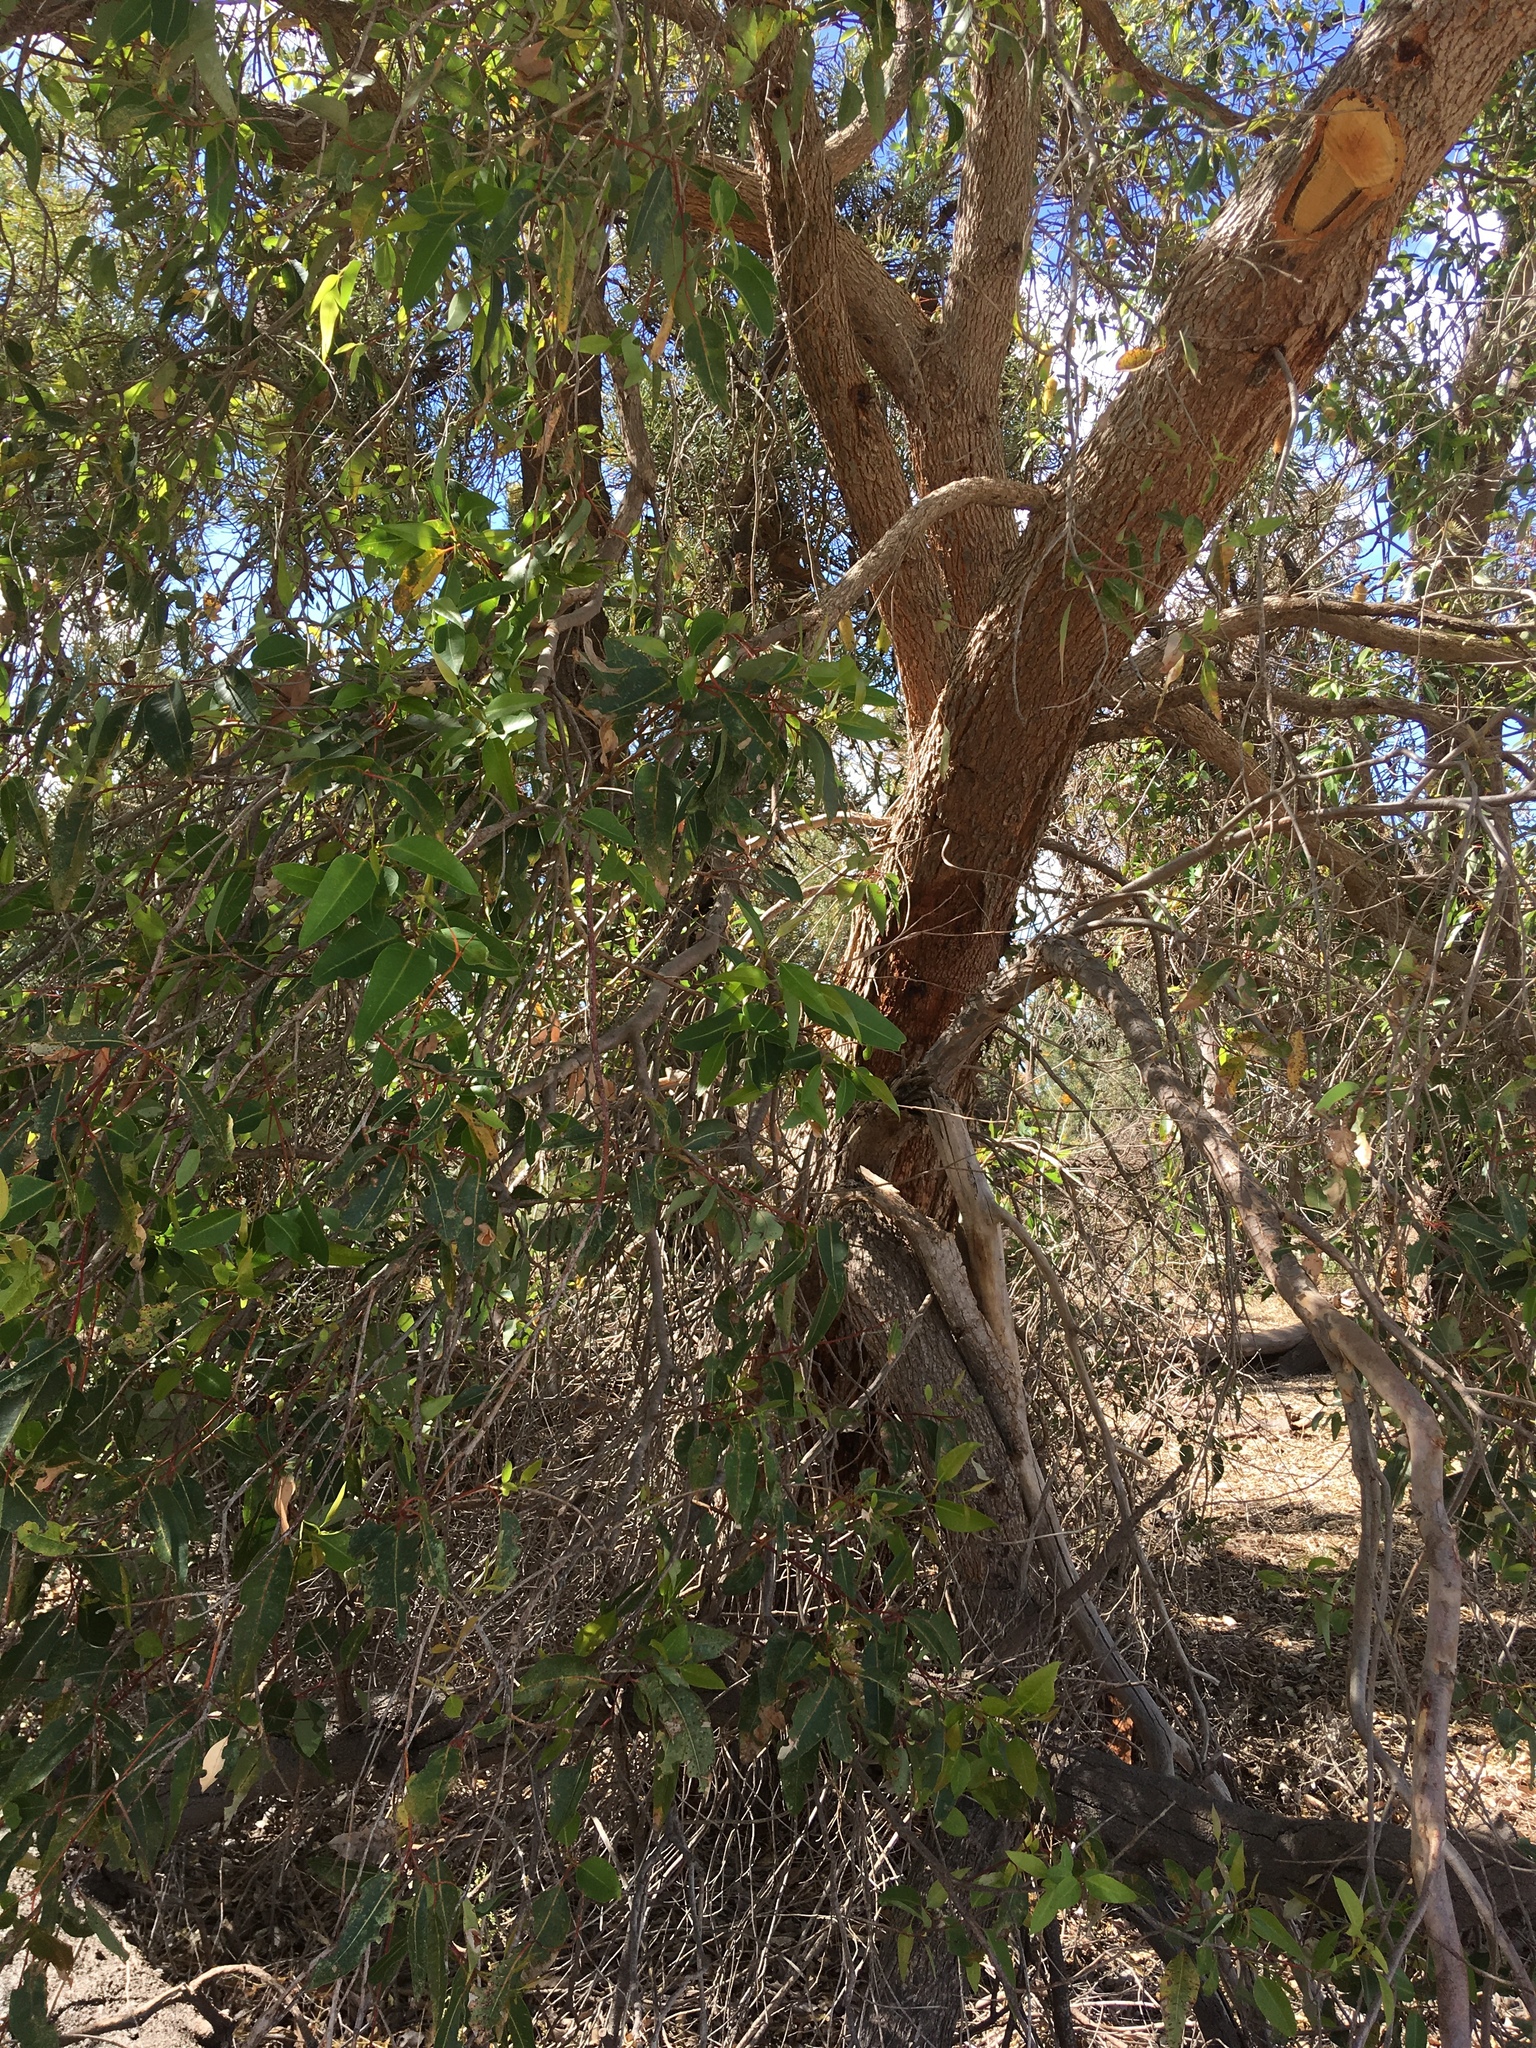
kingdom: Plantae
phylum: Tracheophyta
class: Magnoliopsida
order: Myrtales
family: Myrtaceae
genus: Corymbia
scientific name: Corymbia calophylla
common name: Marri
